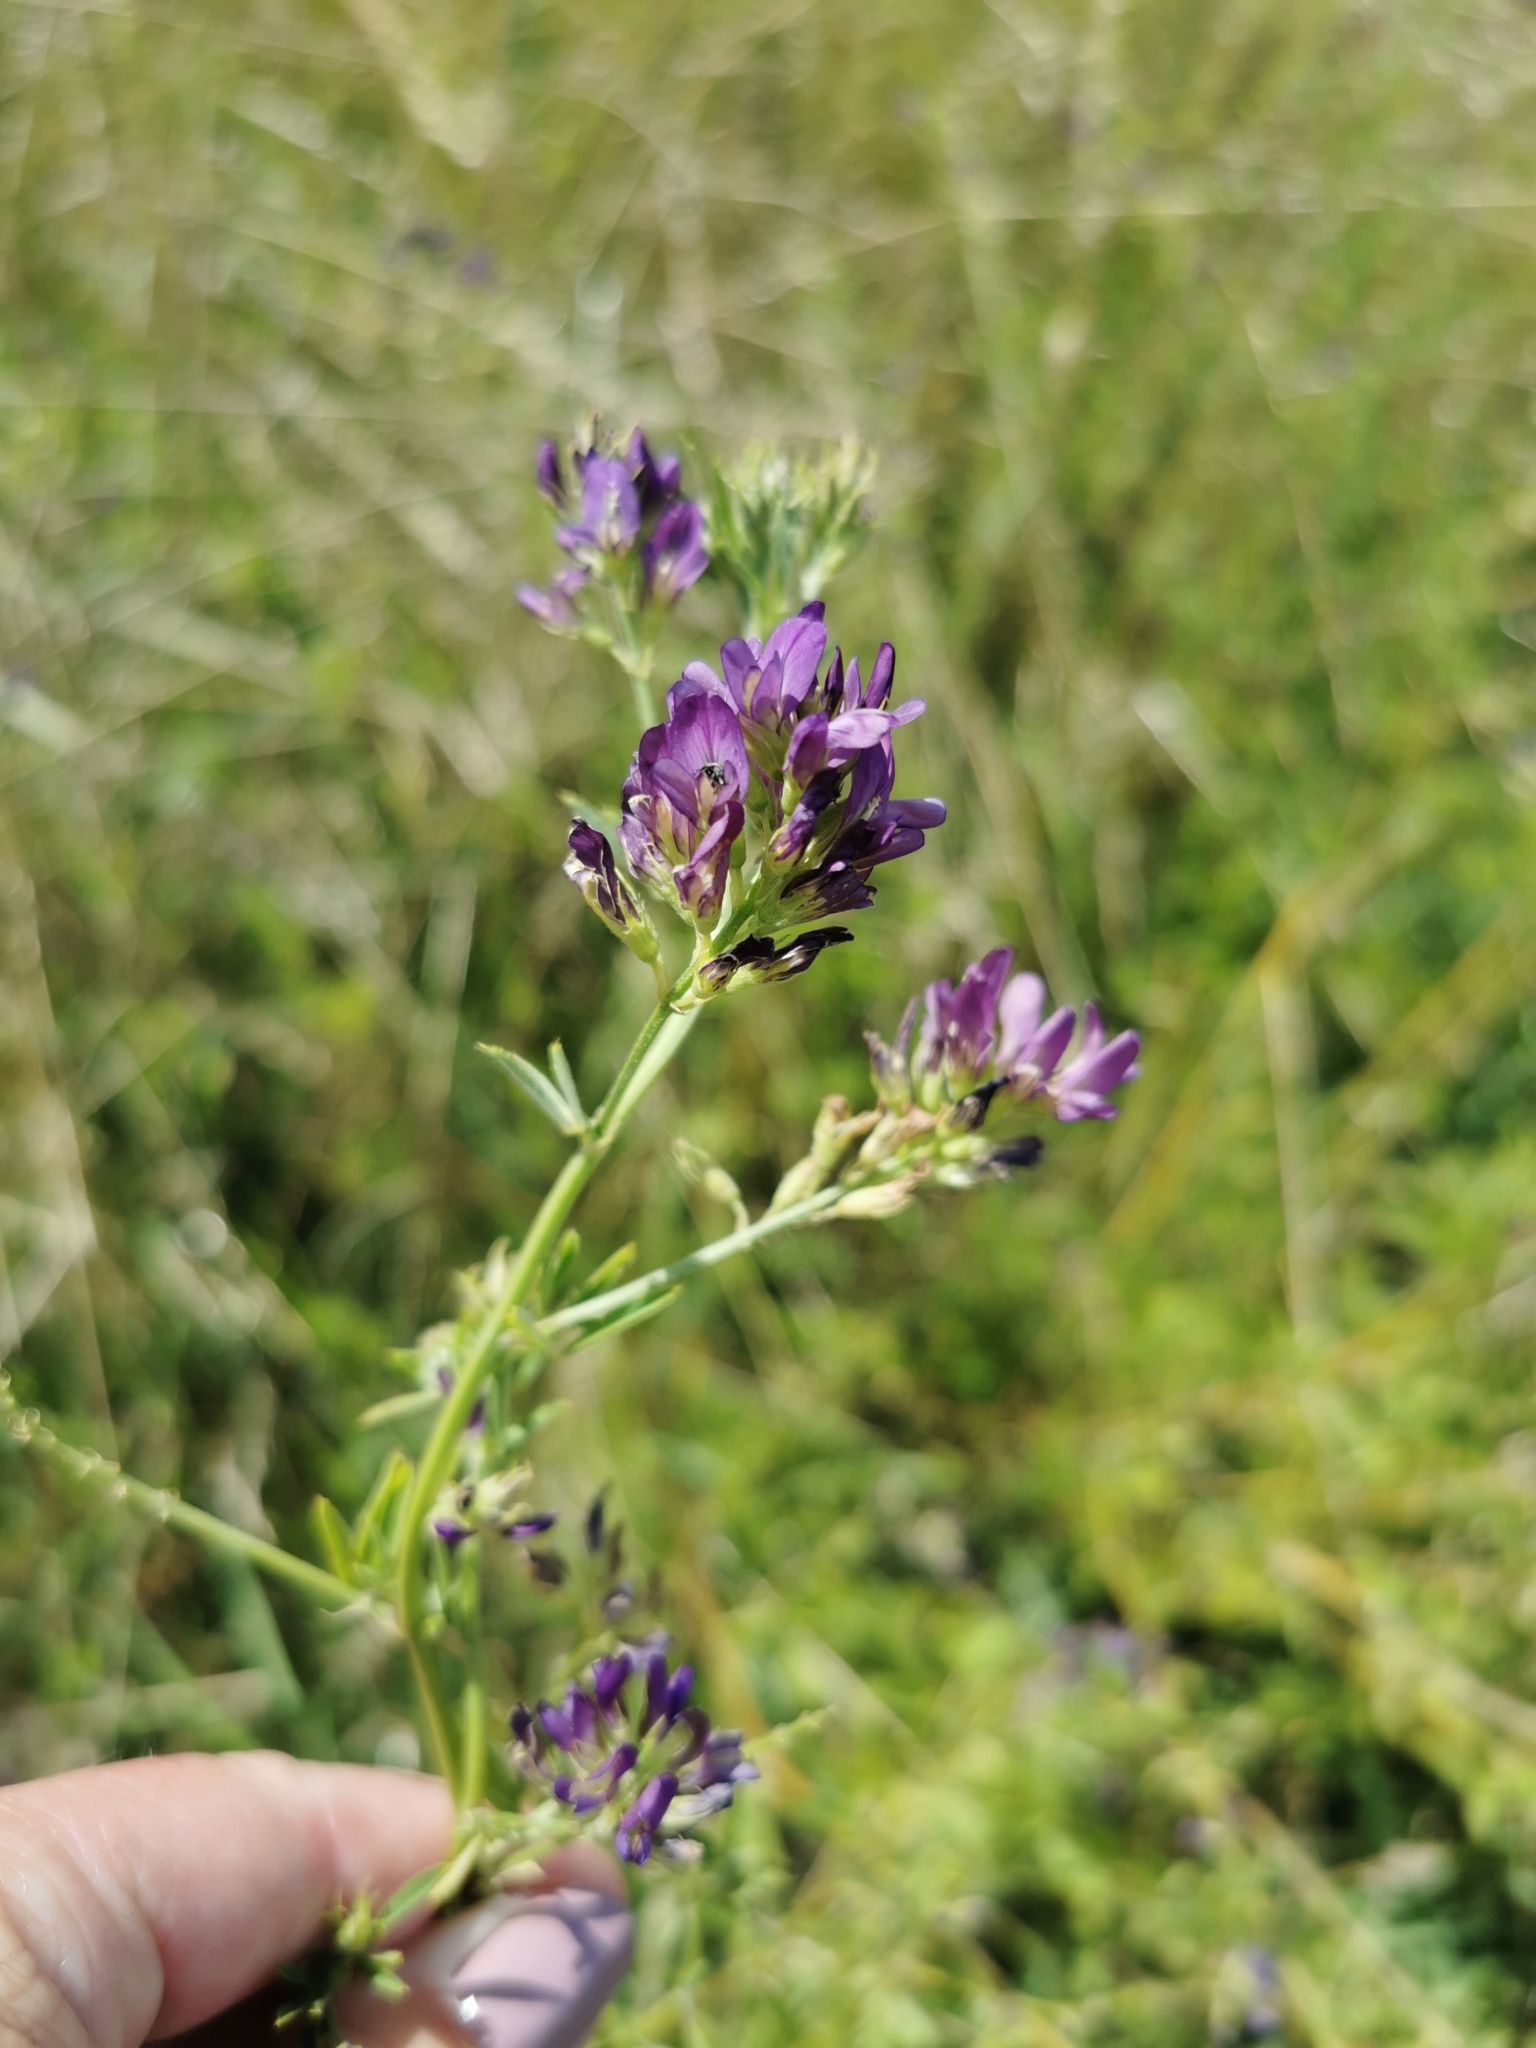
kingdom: Plantae
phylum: Tracheophyta
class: Magnoliopsida
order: Fabales
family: Fabaceae
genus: Medicago
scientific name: Medicago sativa
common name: Alfalfa
